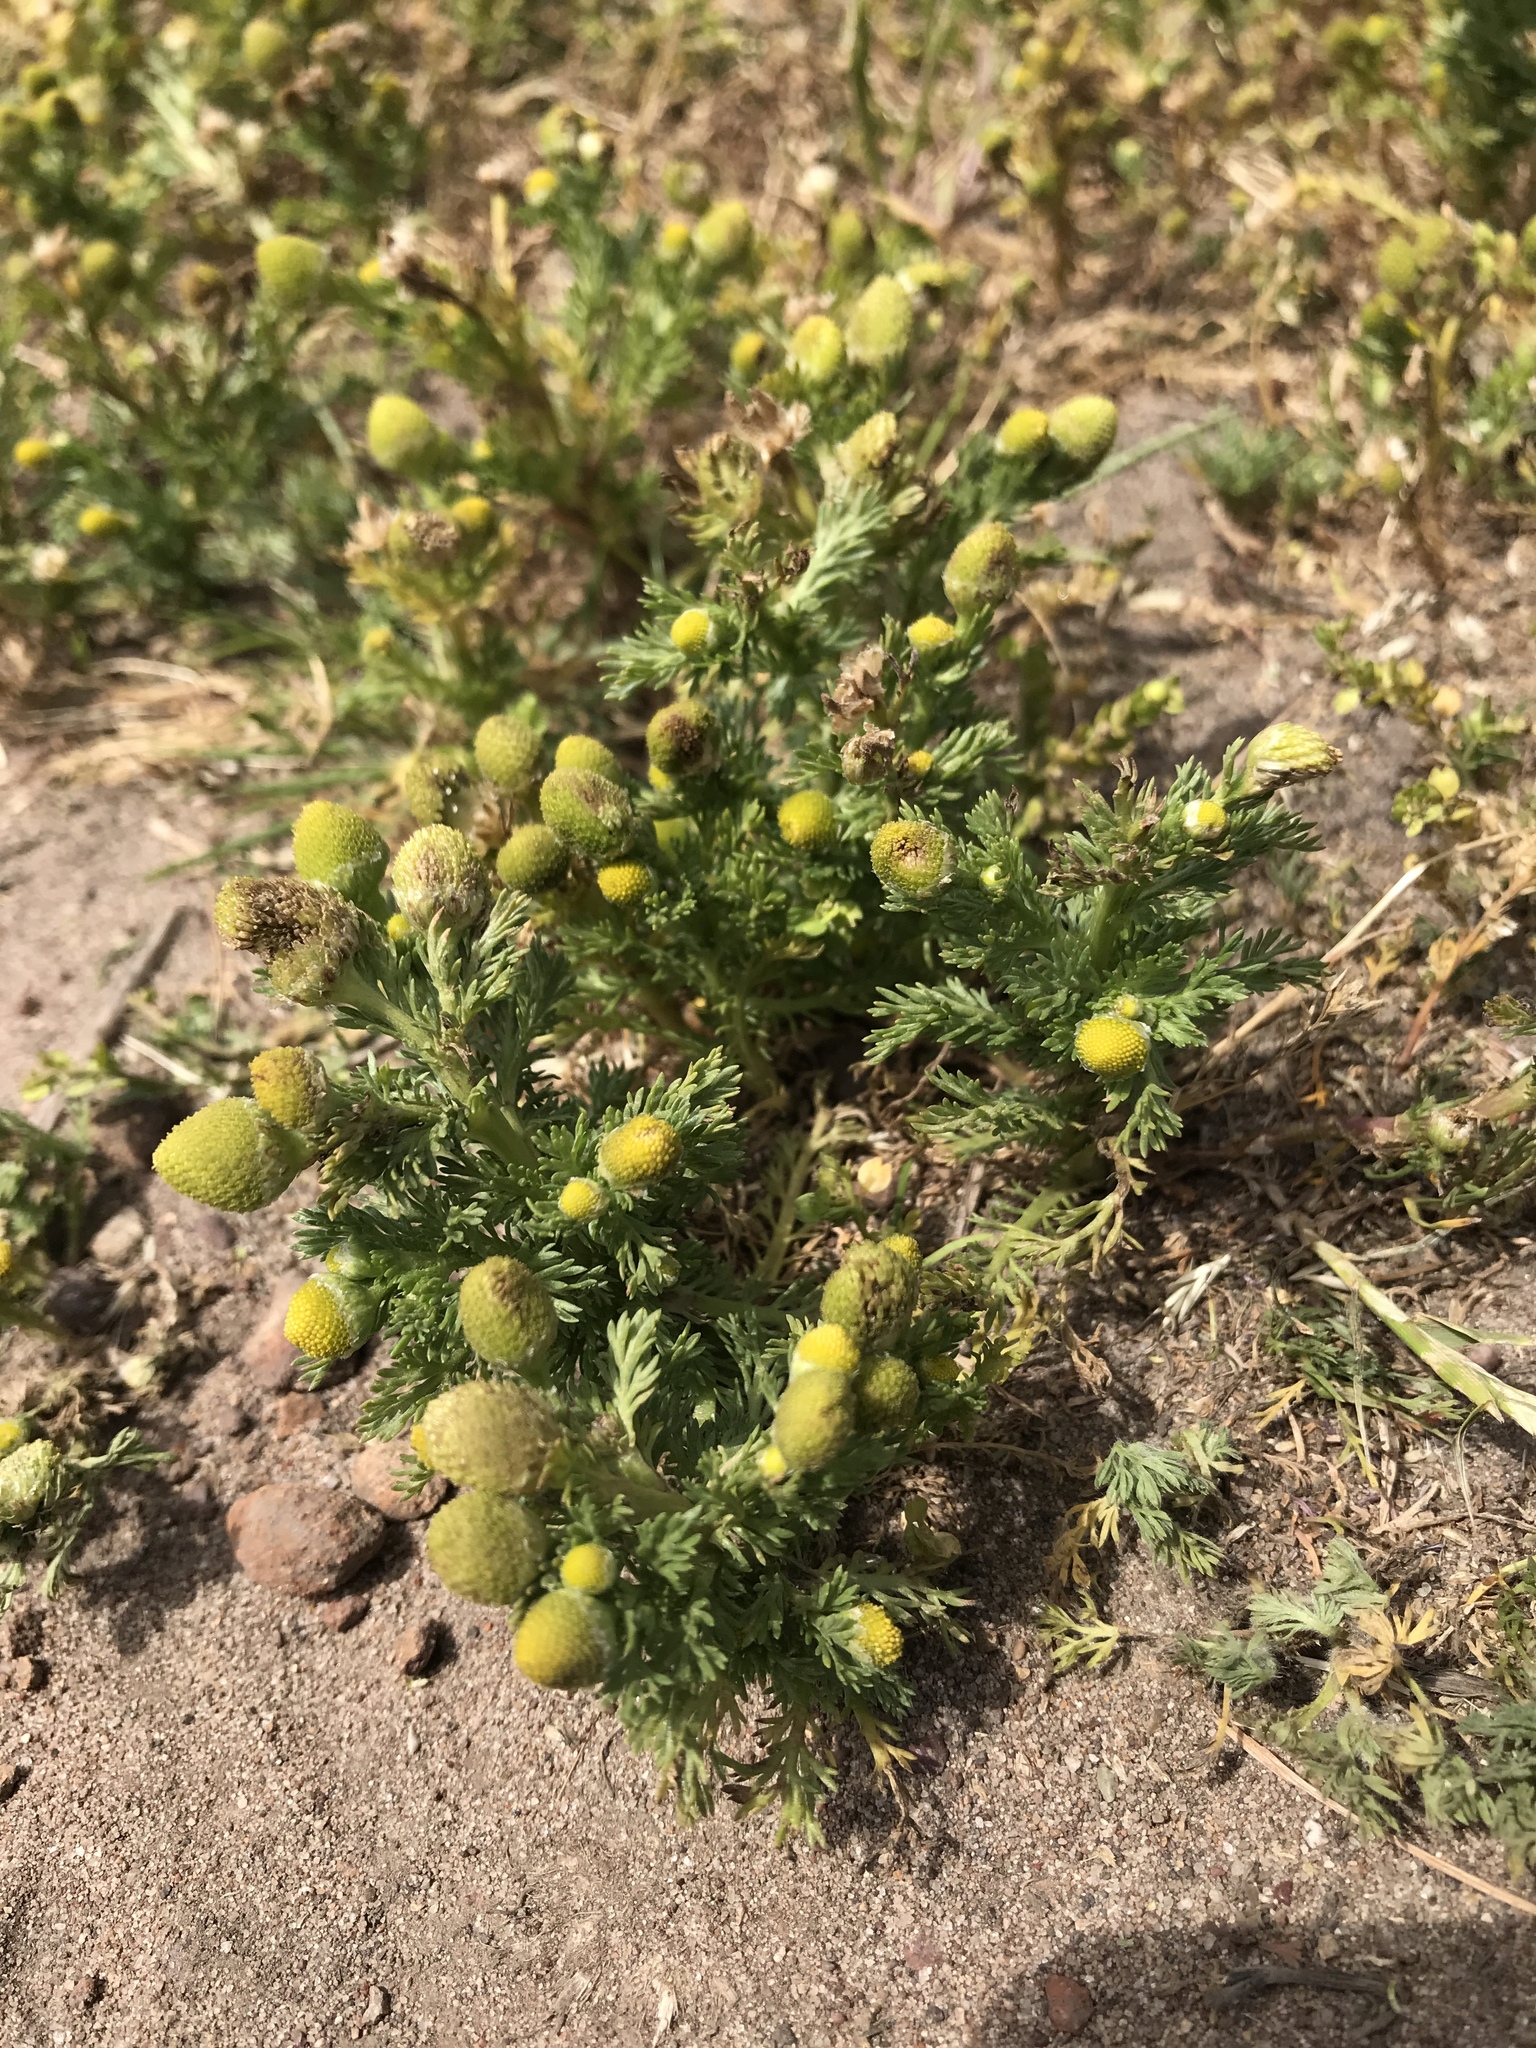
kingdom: Plantae
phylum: Tracheophyta
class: Magnoliopsida
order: Asterales
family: Asteraceae
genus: Matricaria
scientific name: Matricaria discoidea
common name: Disc mayweed
